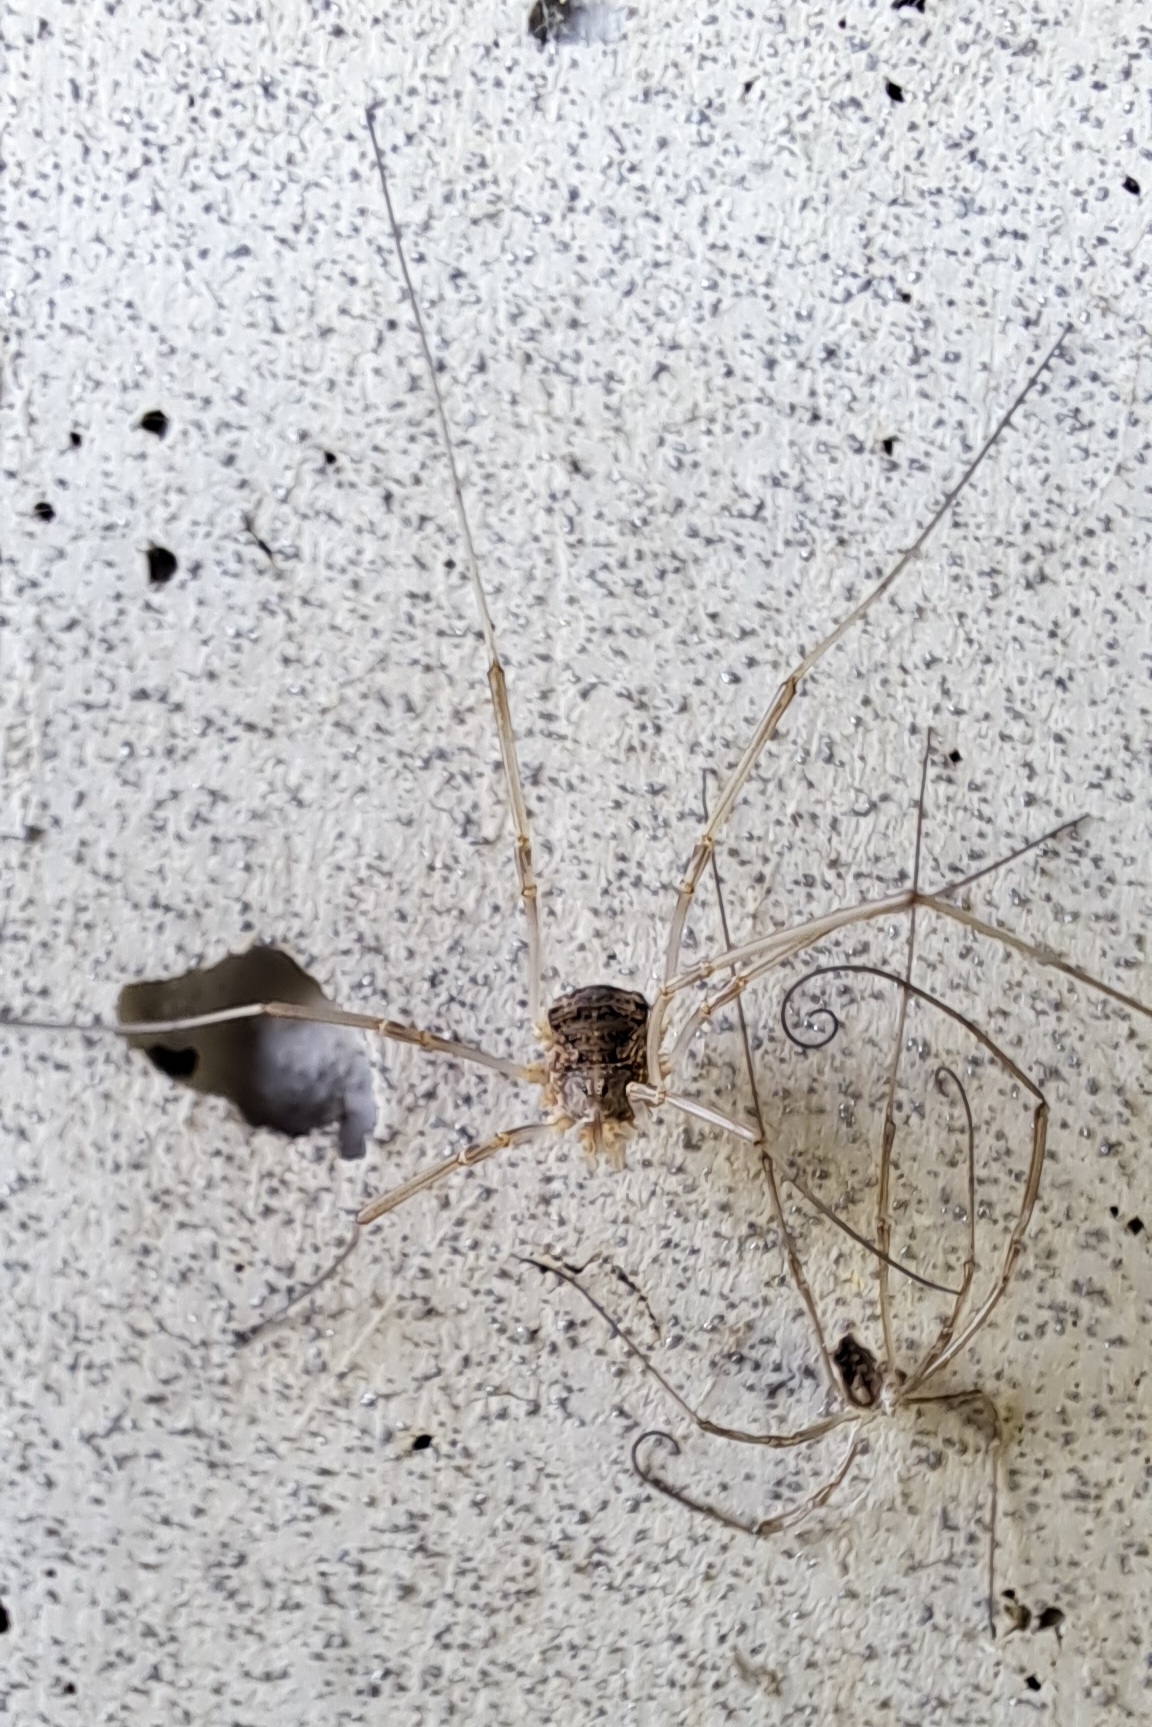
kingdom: Animalia
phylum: Arthropoda
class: Arachnida
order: Opiliones
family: Phalangiidae
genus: Phalangium
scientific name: Phalangium opilio
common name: Daddy longleg
